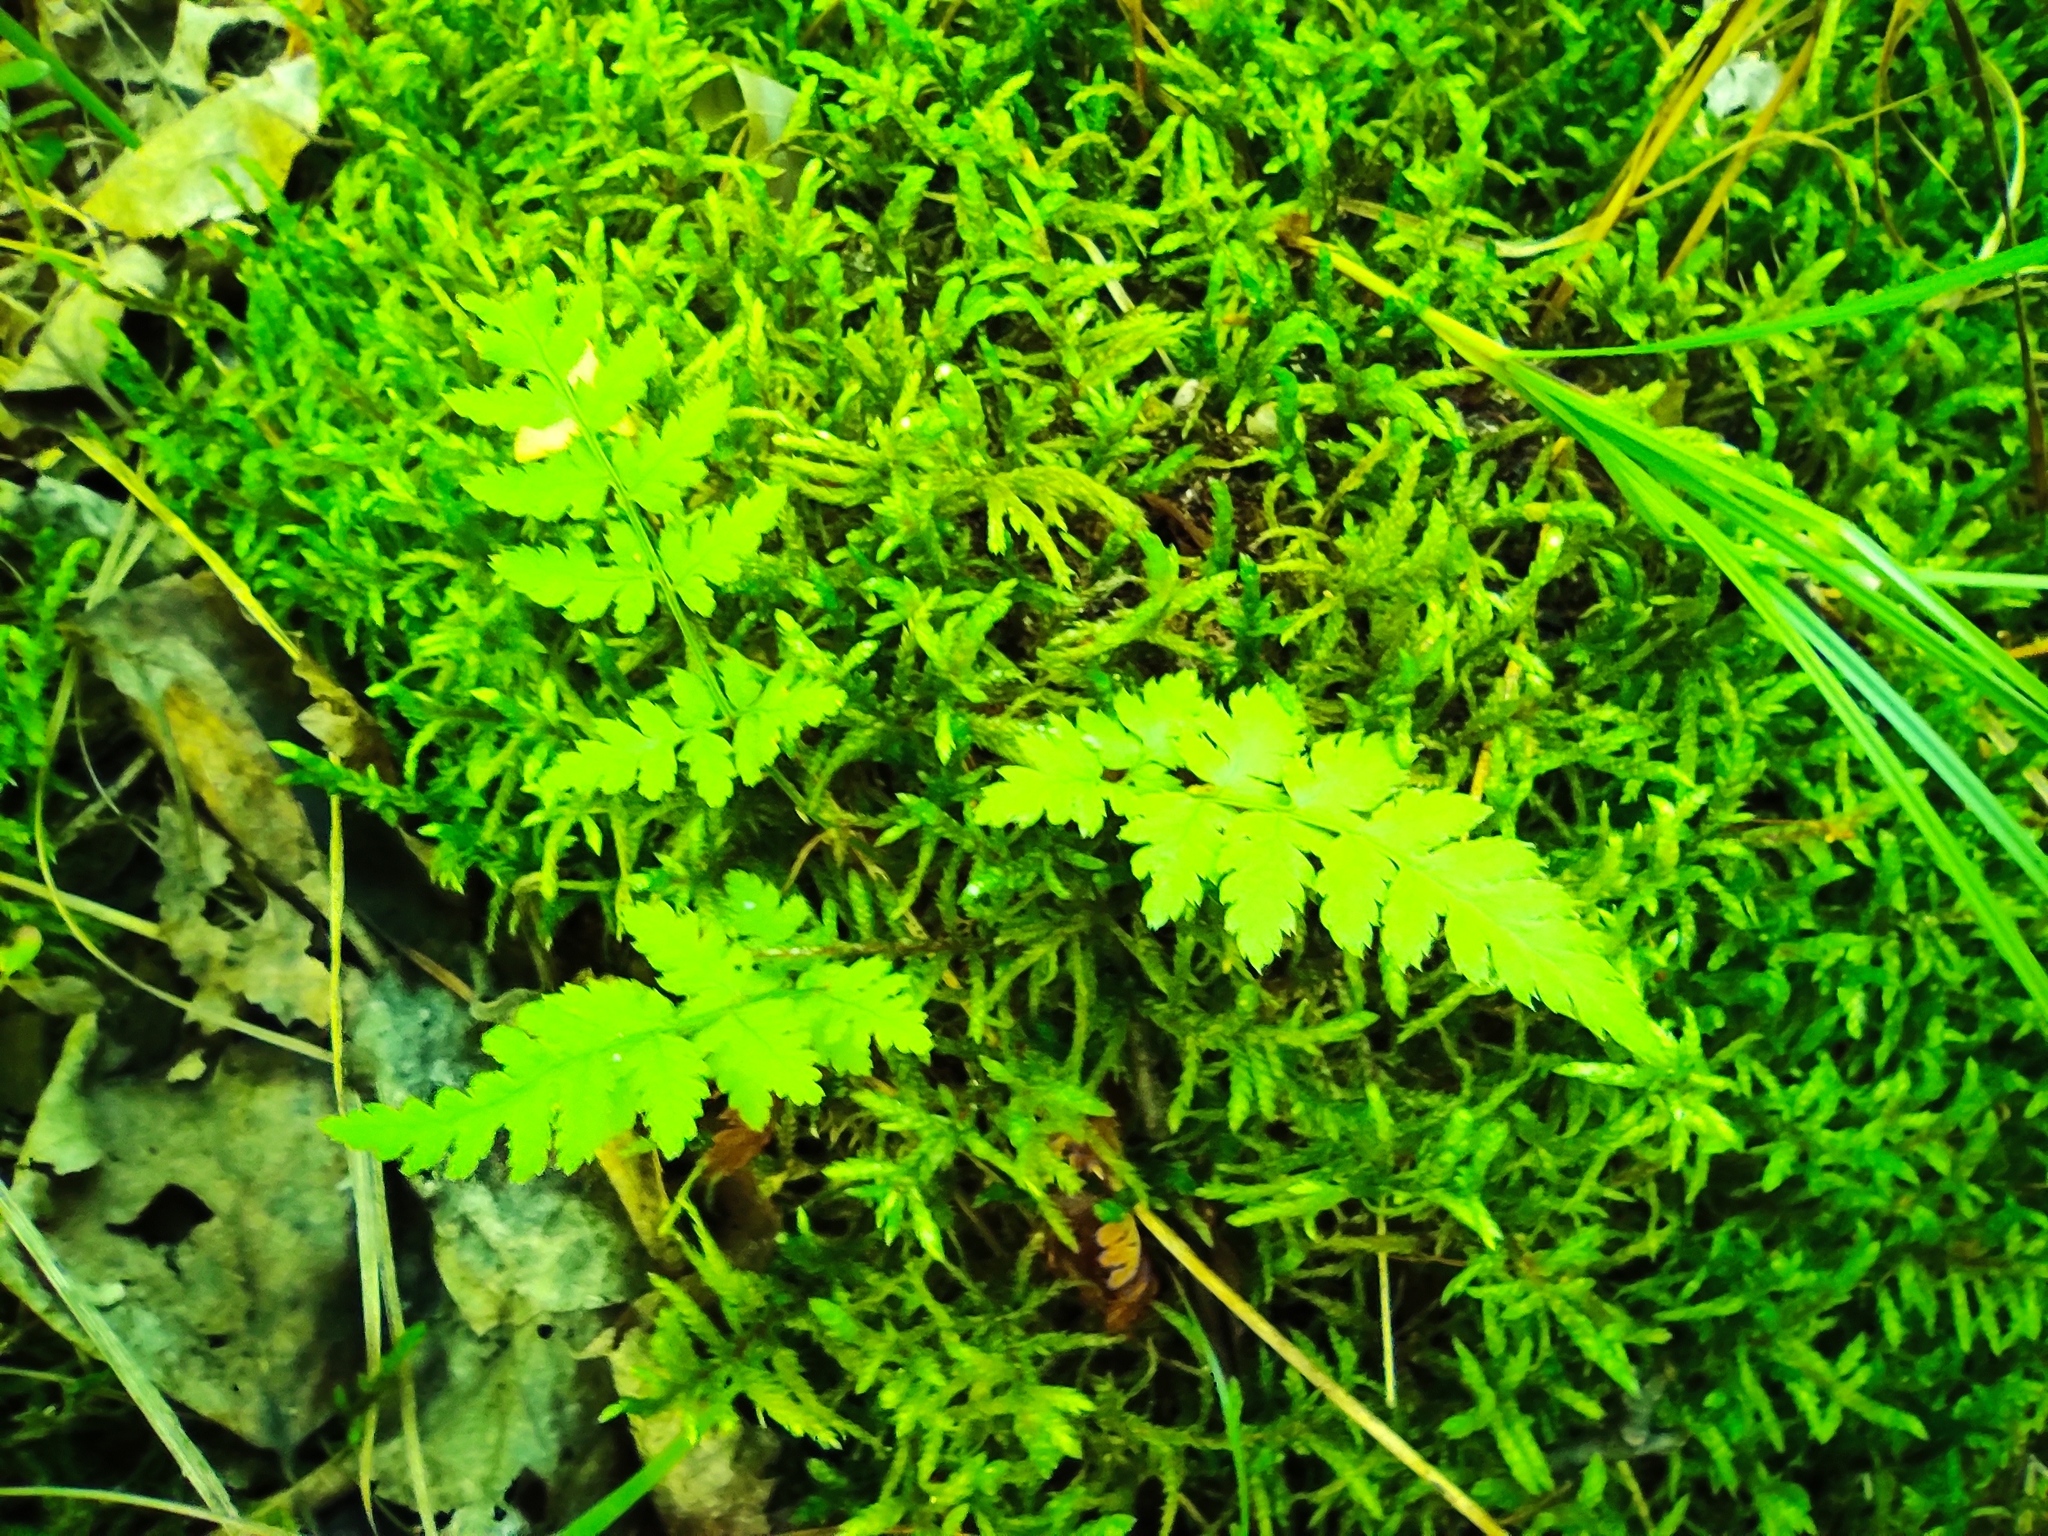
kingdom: Plantae
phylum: Tracheophyta
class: Polypodiopsida
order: Polypodiales
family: Dryopteridaceae
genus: Dryopteris
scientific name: Dryopteris carthusiana
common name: Narrow buckler-fern
